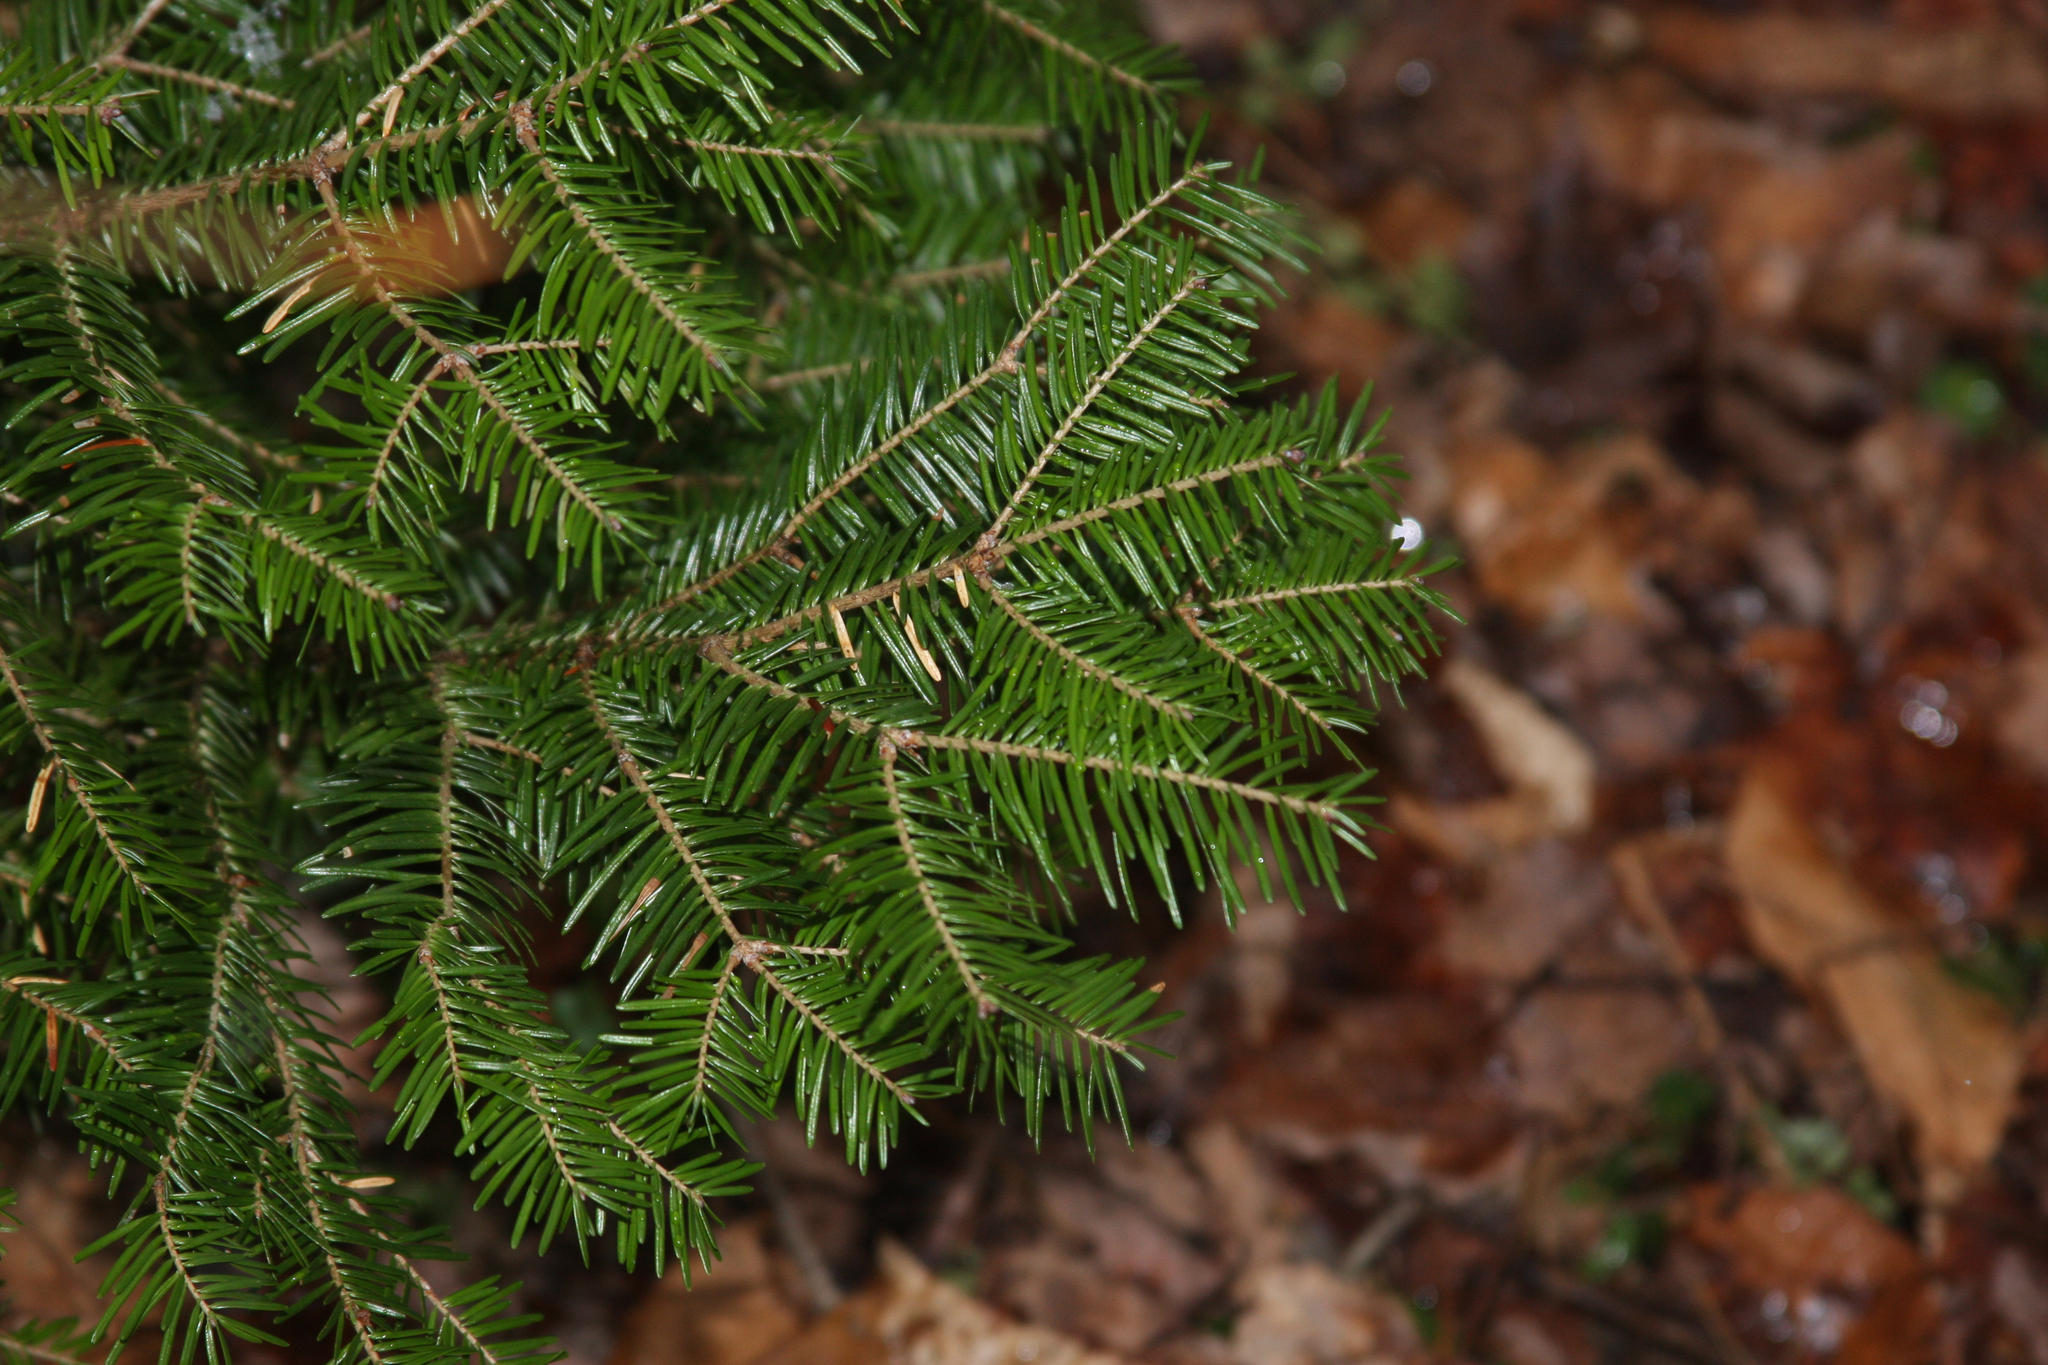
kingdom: Plantae
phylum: Tracheophyta
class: Pinopsida
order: Pinales
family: Pinaceae
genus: Abies
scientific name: Abies balsamea
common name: Balsam fir
